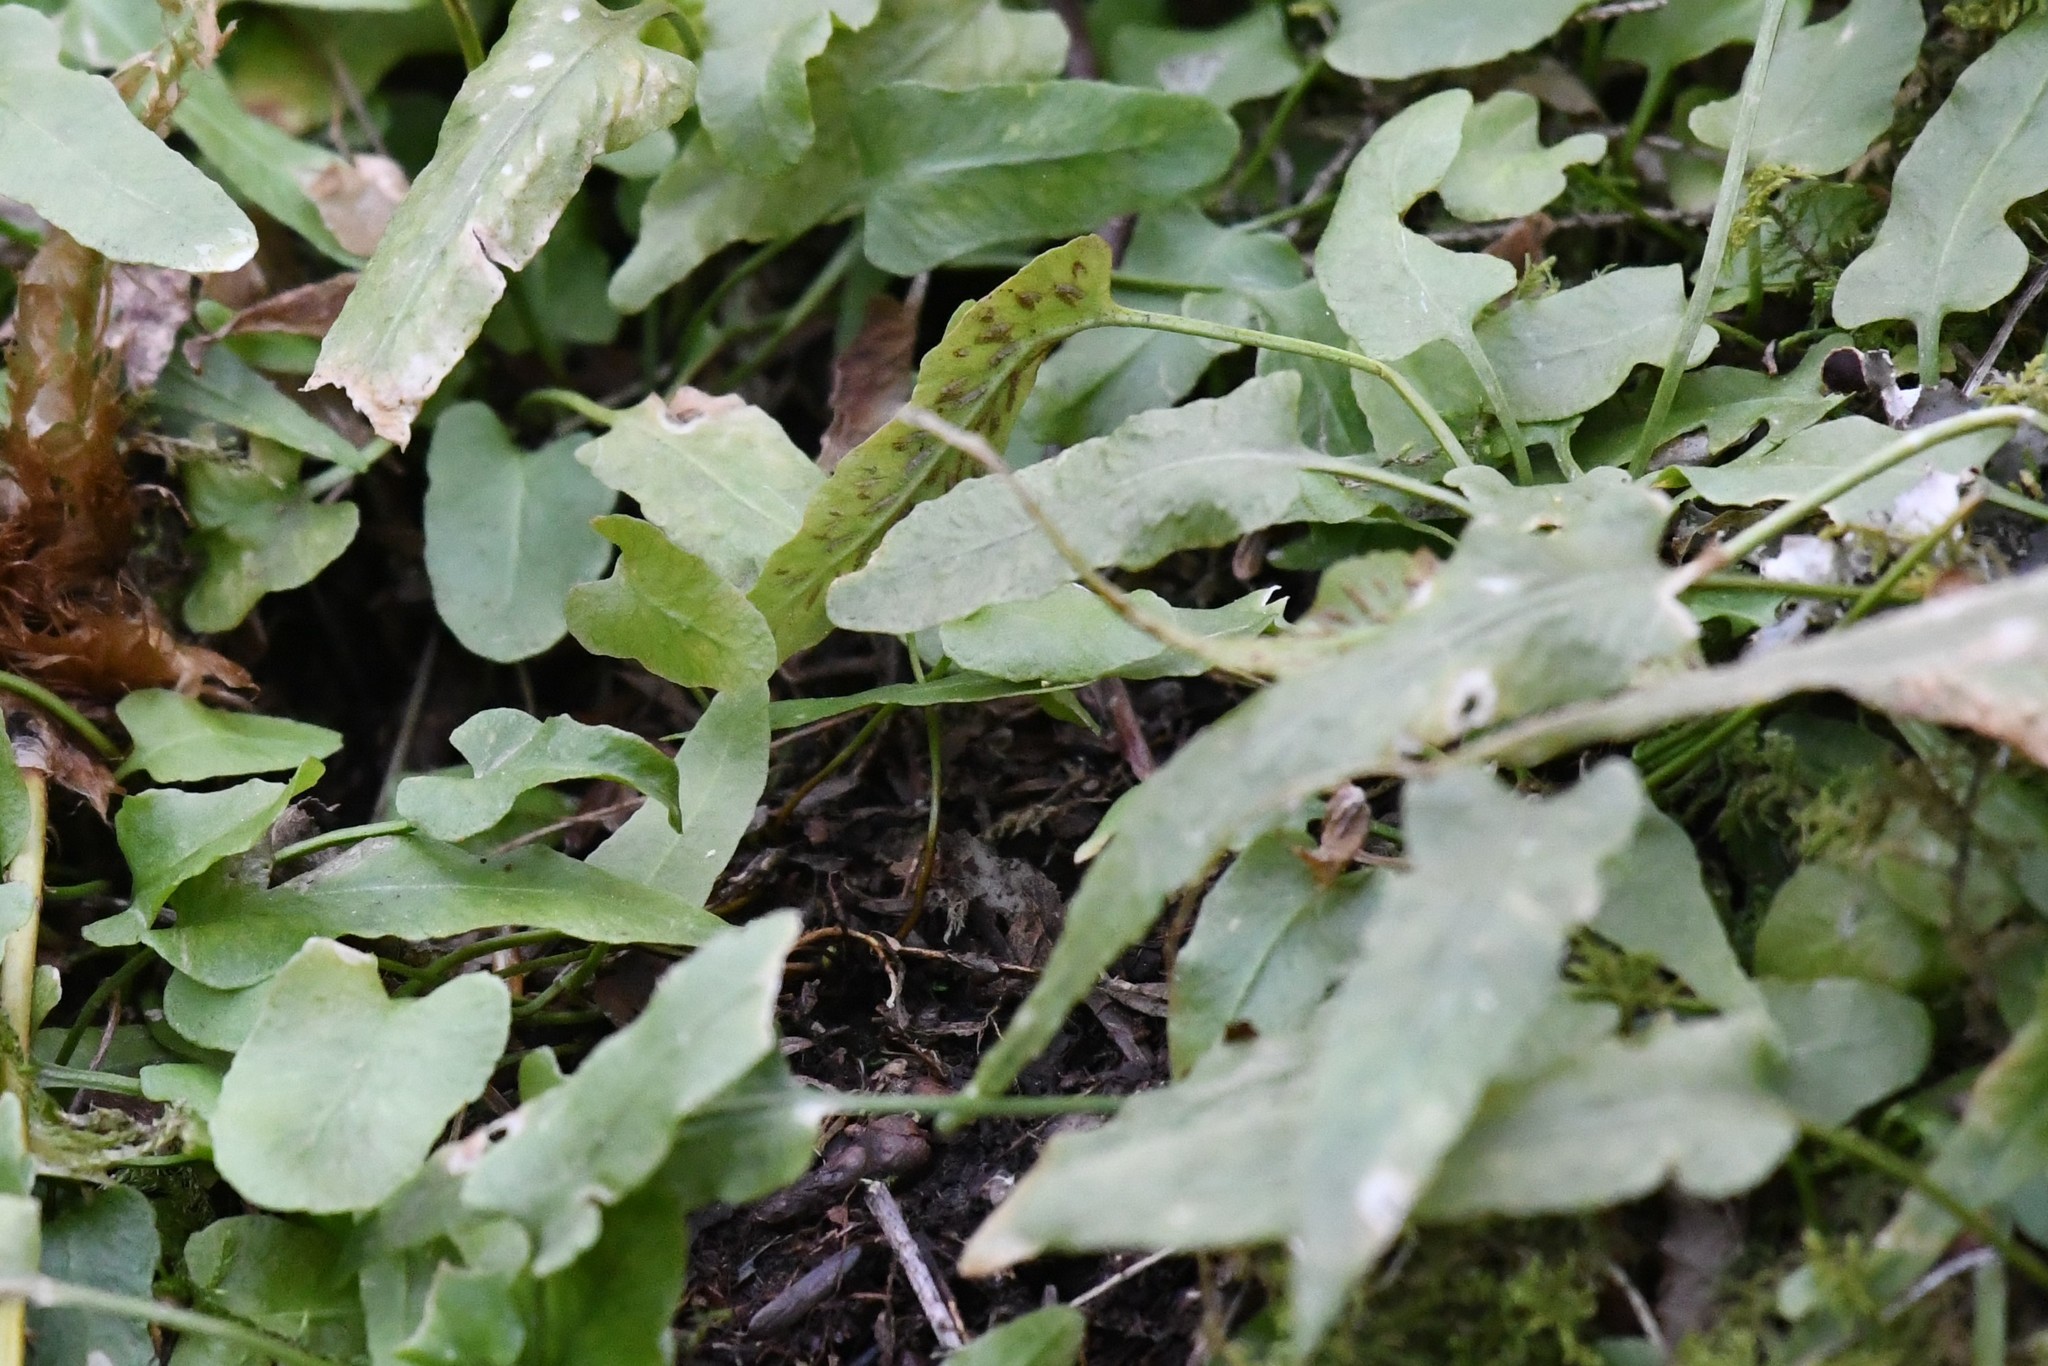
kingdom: Plantae
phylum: Tracheophyta
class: Polypodiopsida
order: Polypodiales
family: Aspleniaceae
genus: Asplenium
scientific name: Asplenium rhizophyllum
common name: Walking fern
